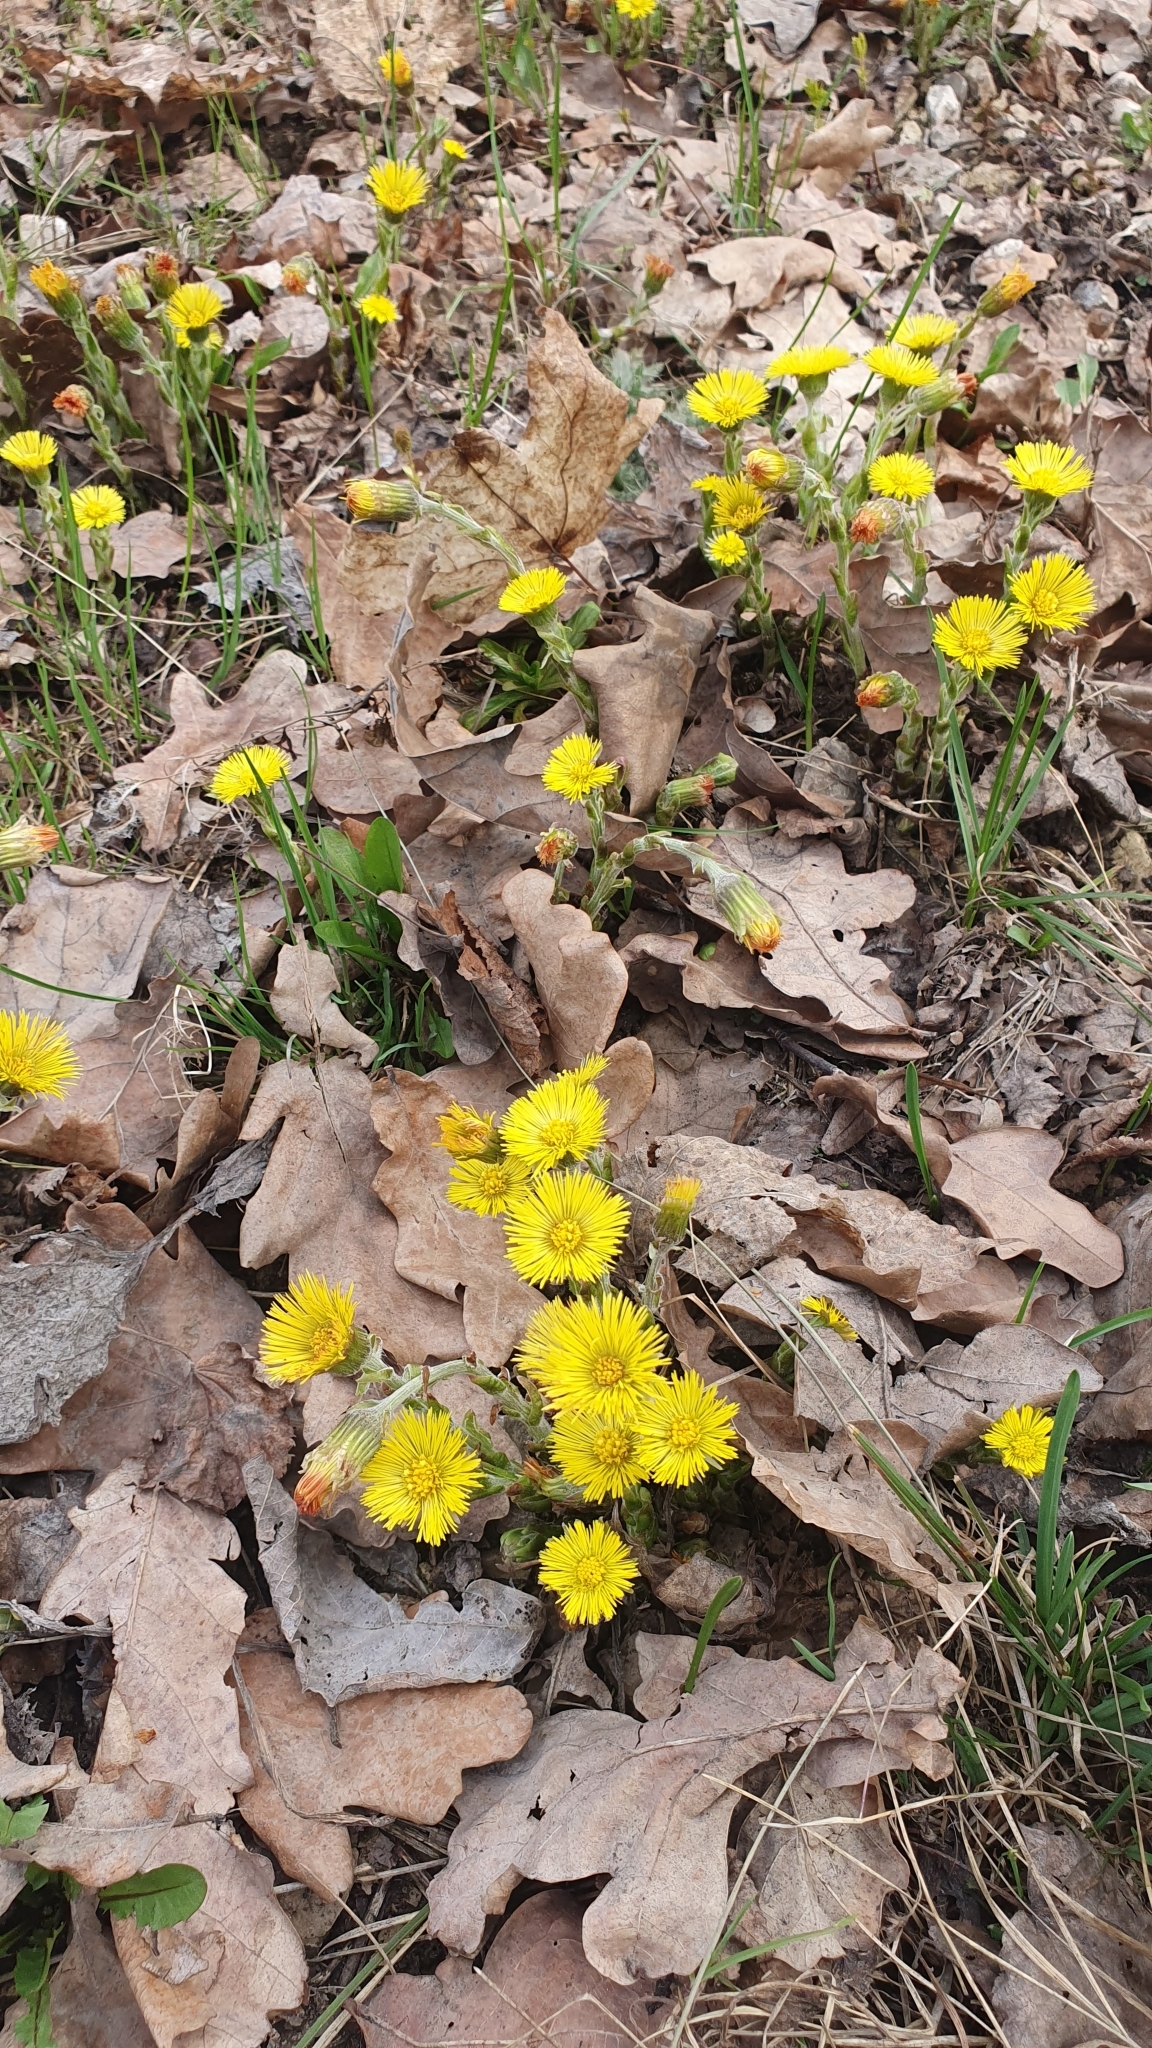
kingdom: Plantae
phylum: Tracheophyta
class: Magnoliopsida
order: Asterales
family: Asteraceae
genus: Tussilago
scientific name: Tussilago farfara
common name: Coltsfoot
